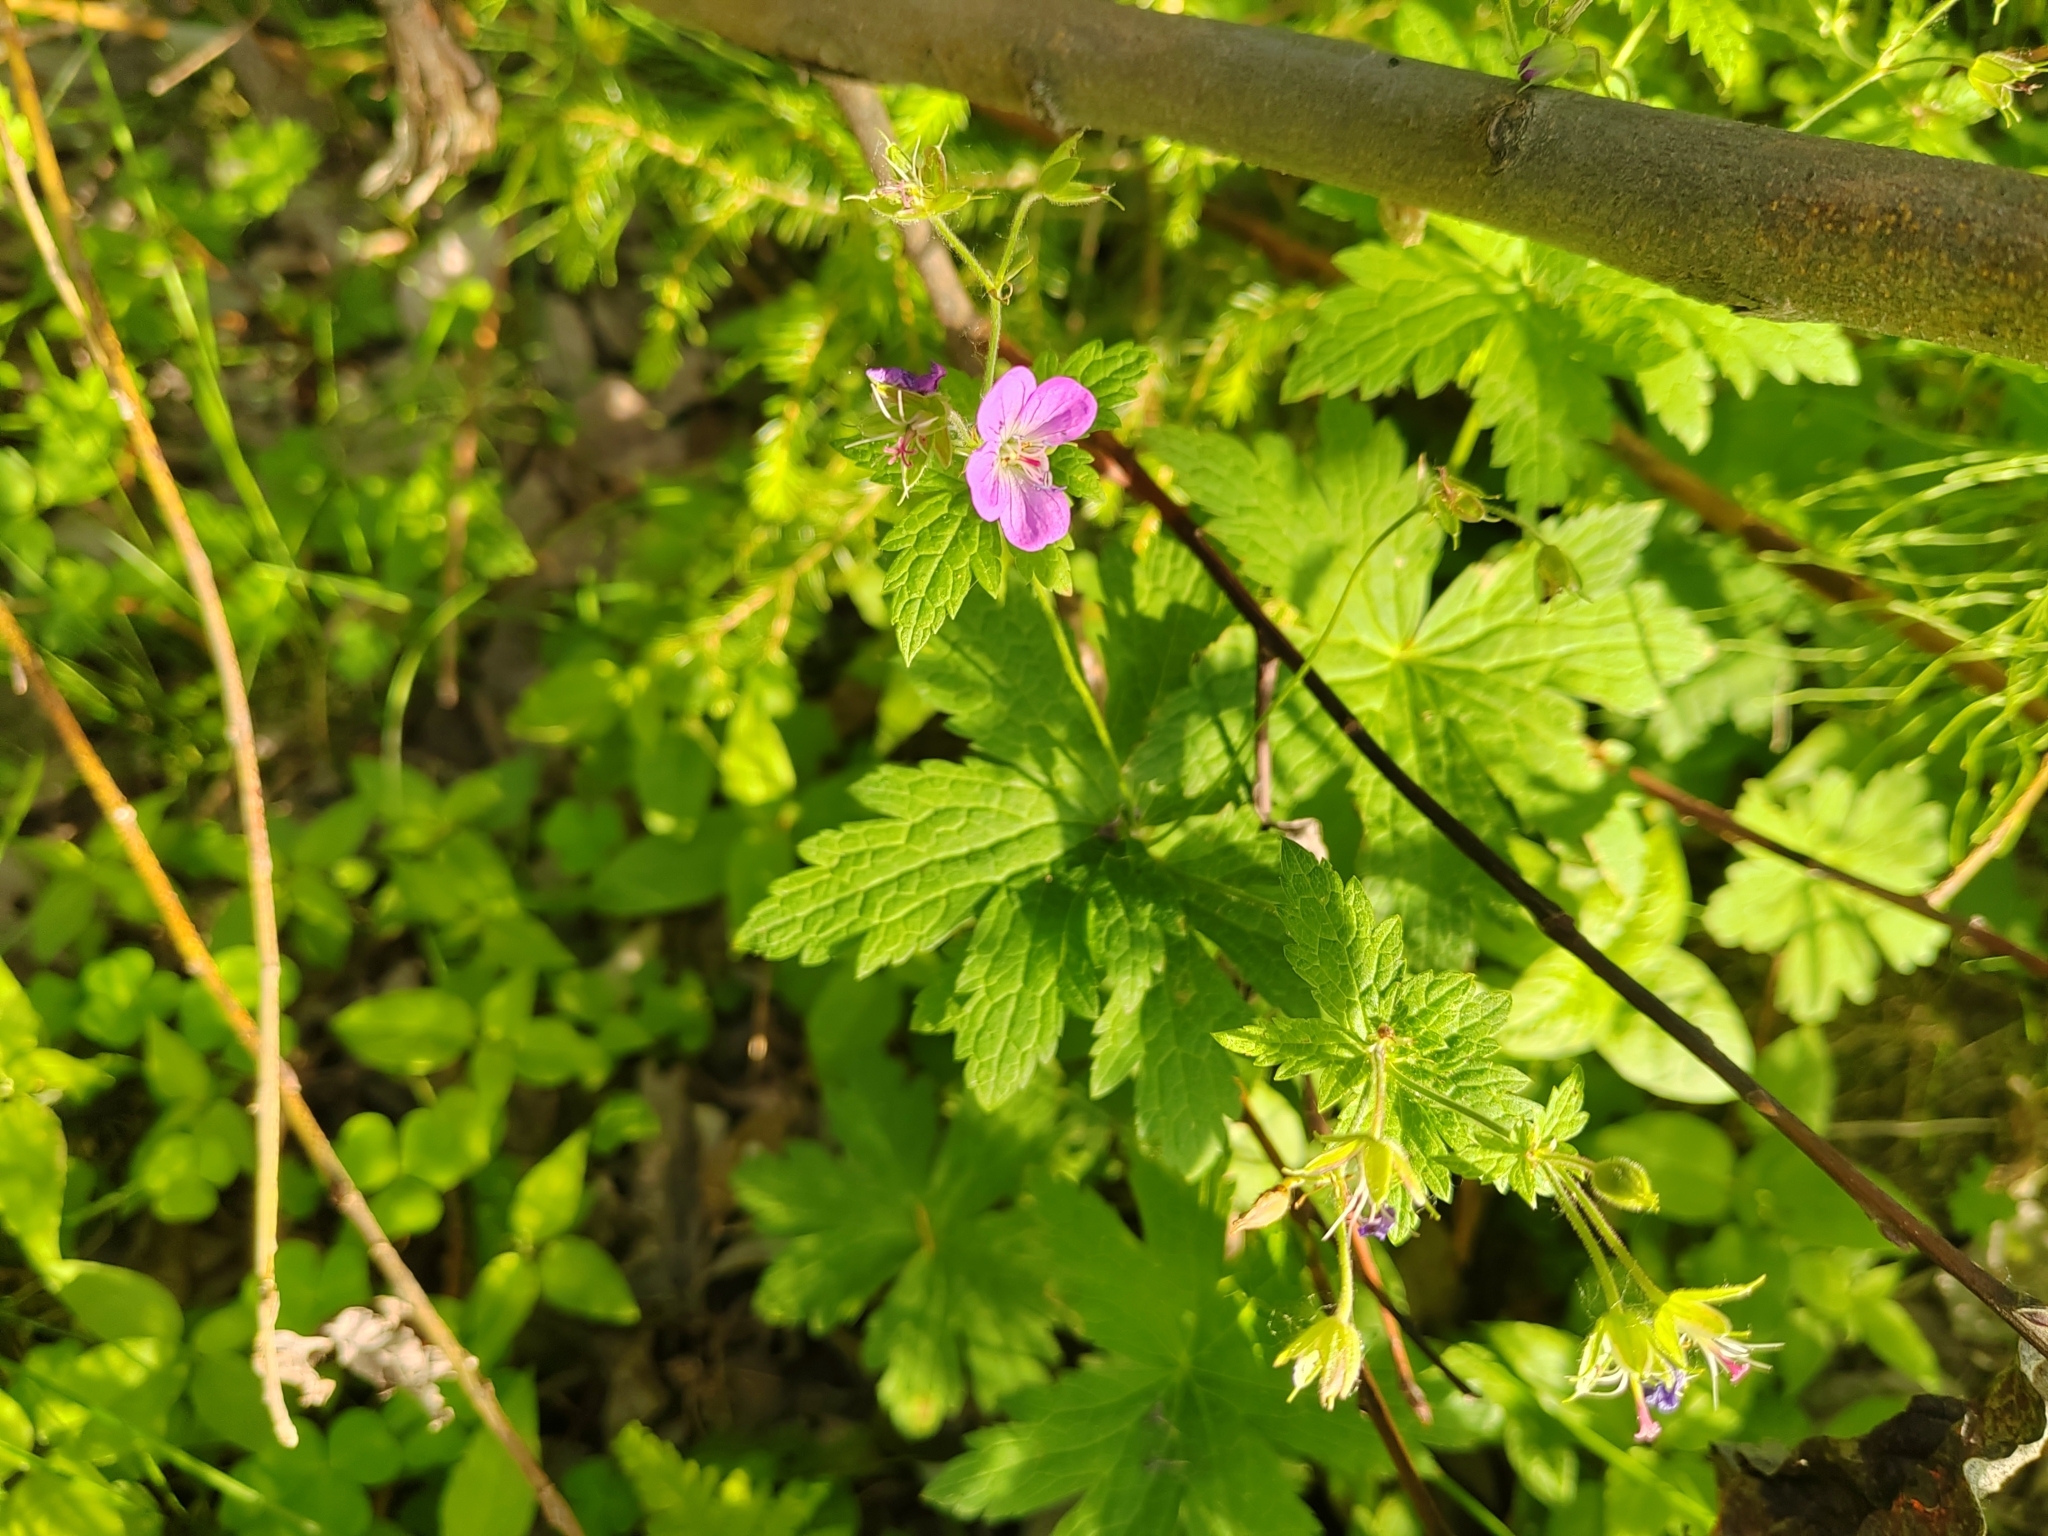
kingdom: Plantae
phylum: Tracheophyta
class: Magnoliopsida
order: Geraniales
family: Geraniaceae
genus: Geranium
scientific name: Geranium sylvaticum
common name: Wood crane's-bill
